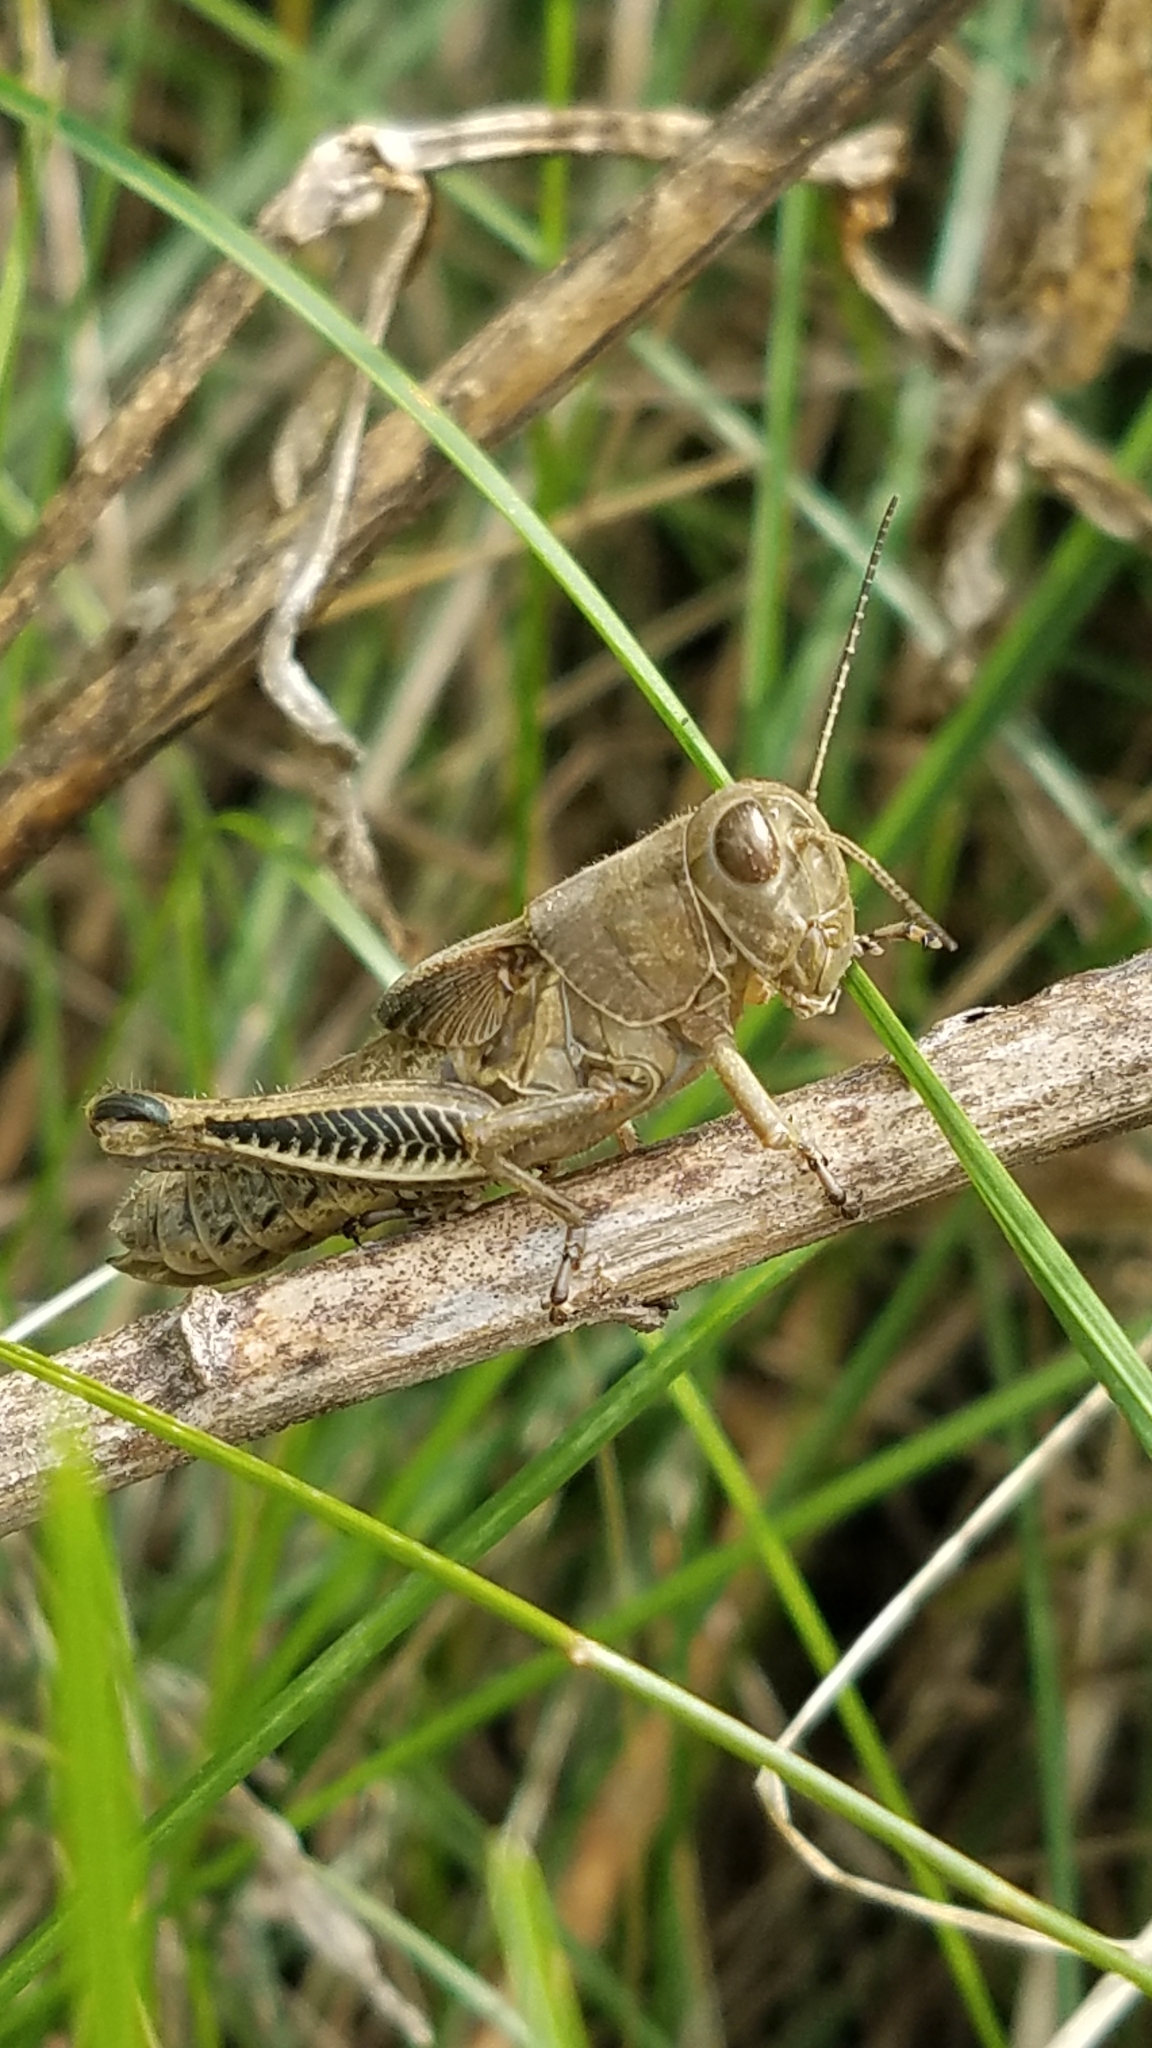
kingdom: Animalia
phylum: Arthropoda
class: Insecta
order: Orthoptera
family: Acrididae
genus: Melanoplus
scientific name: Melanoplus differentialis
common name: Differential grasshopper
